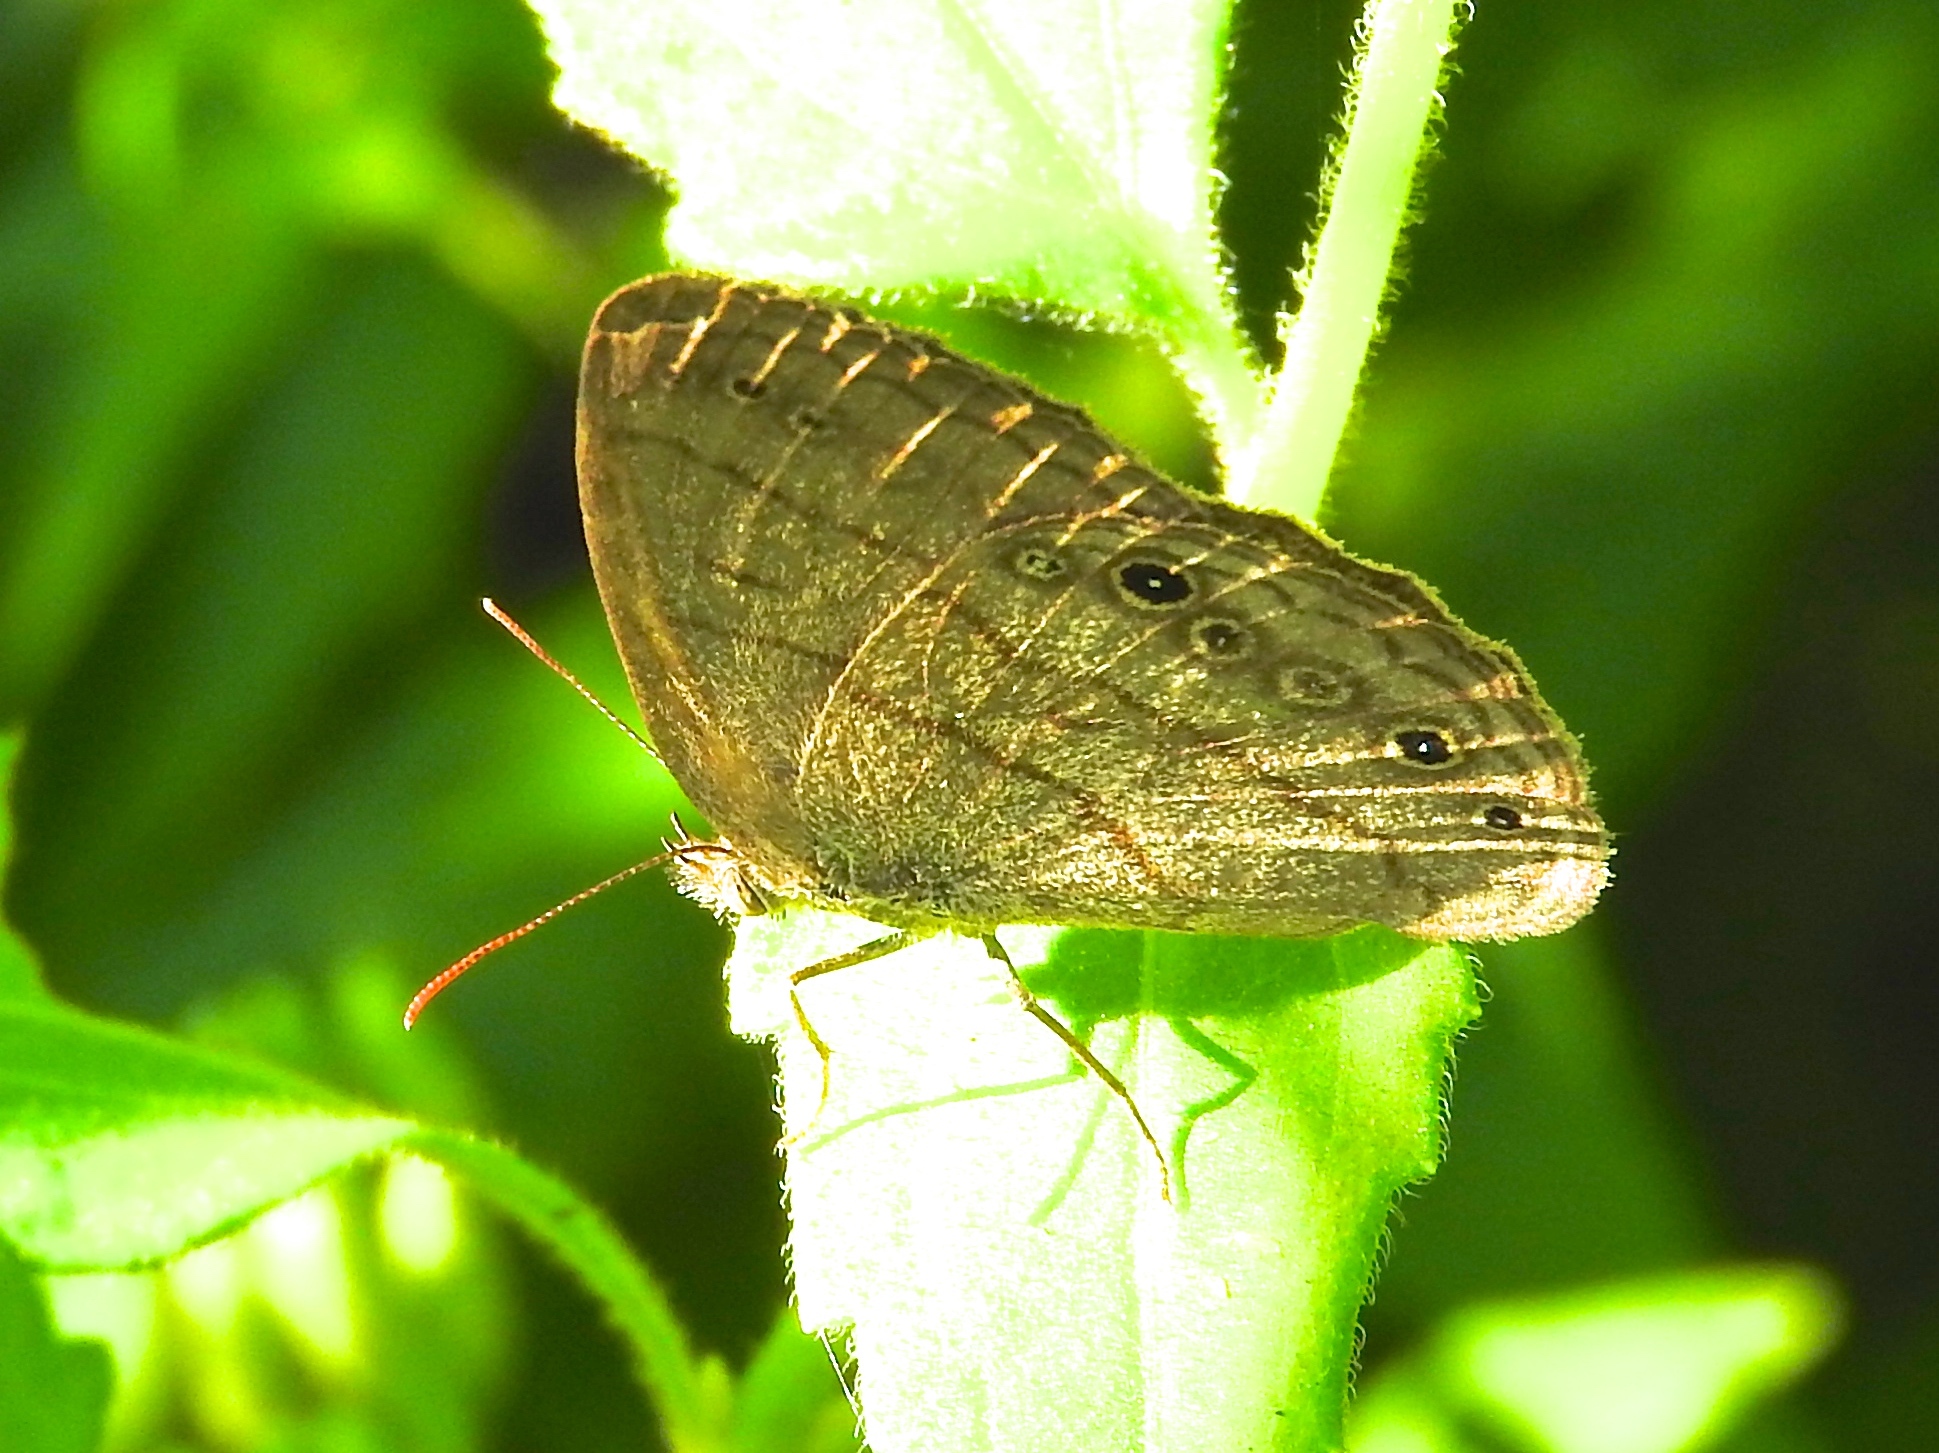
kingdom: Animalia
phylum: Arthropoda
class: Insecta
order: Lepidoptera
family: Nymphalidae
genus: Hermeuptychia
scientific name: Hermeuptychia
